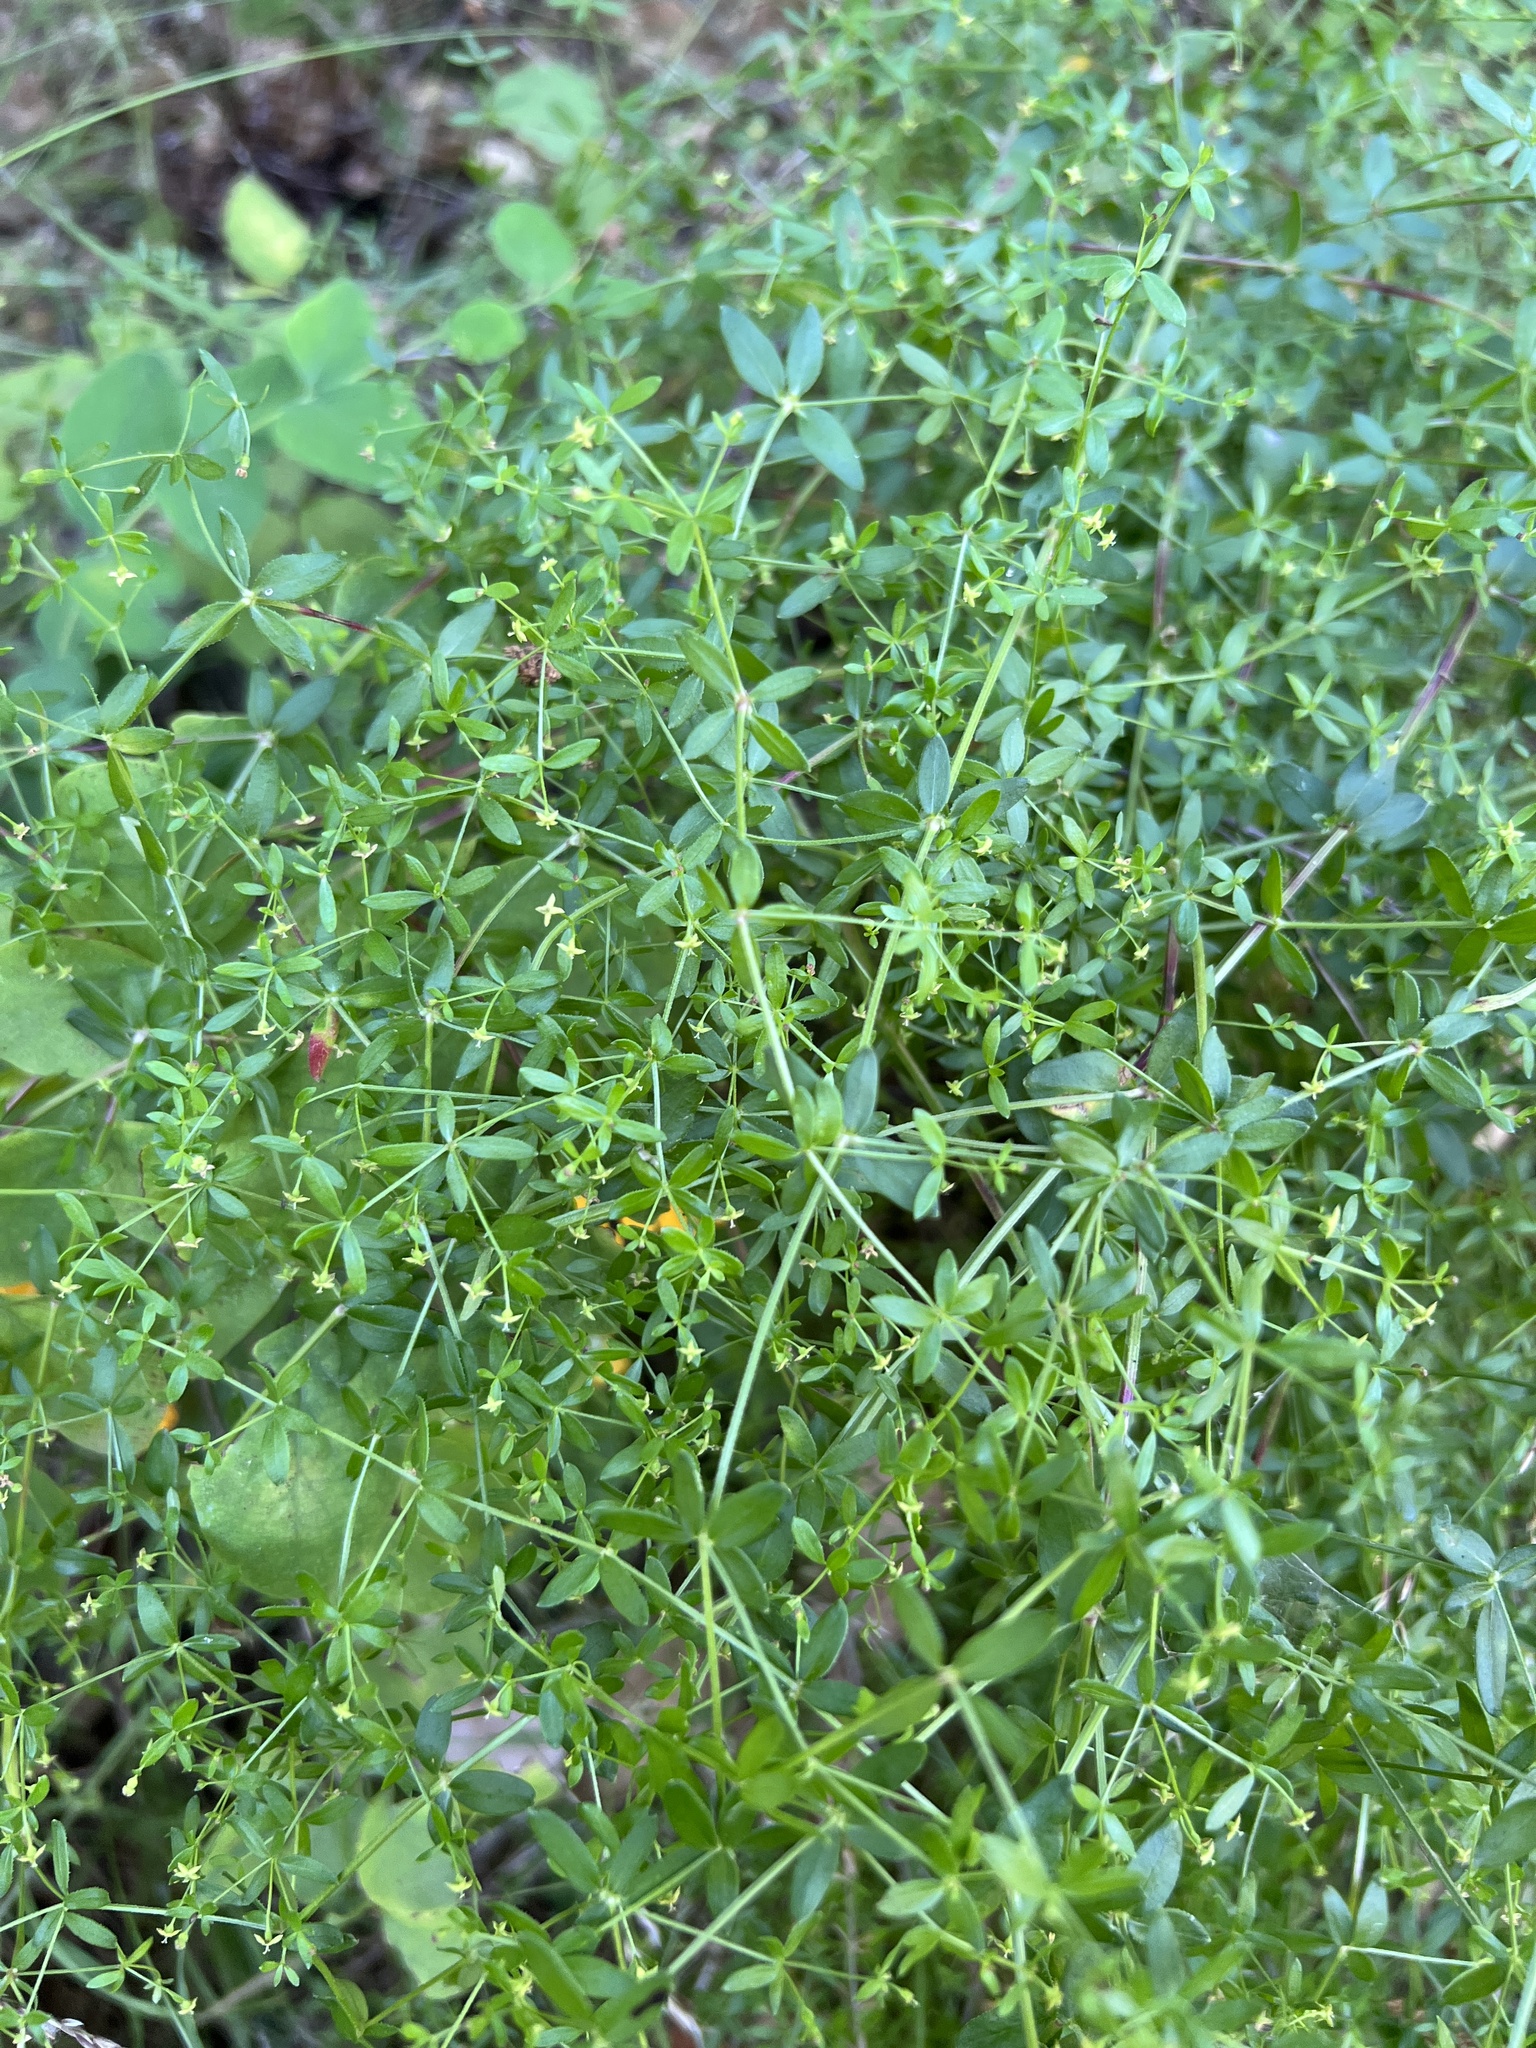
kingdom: Plantae
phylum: Tracheophyta
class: Magnoliopsida
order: Gentianales
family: Rubiaceae
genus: Galium
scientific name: Galium porrigens
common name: Climbing bedstraw
